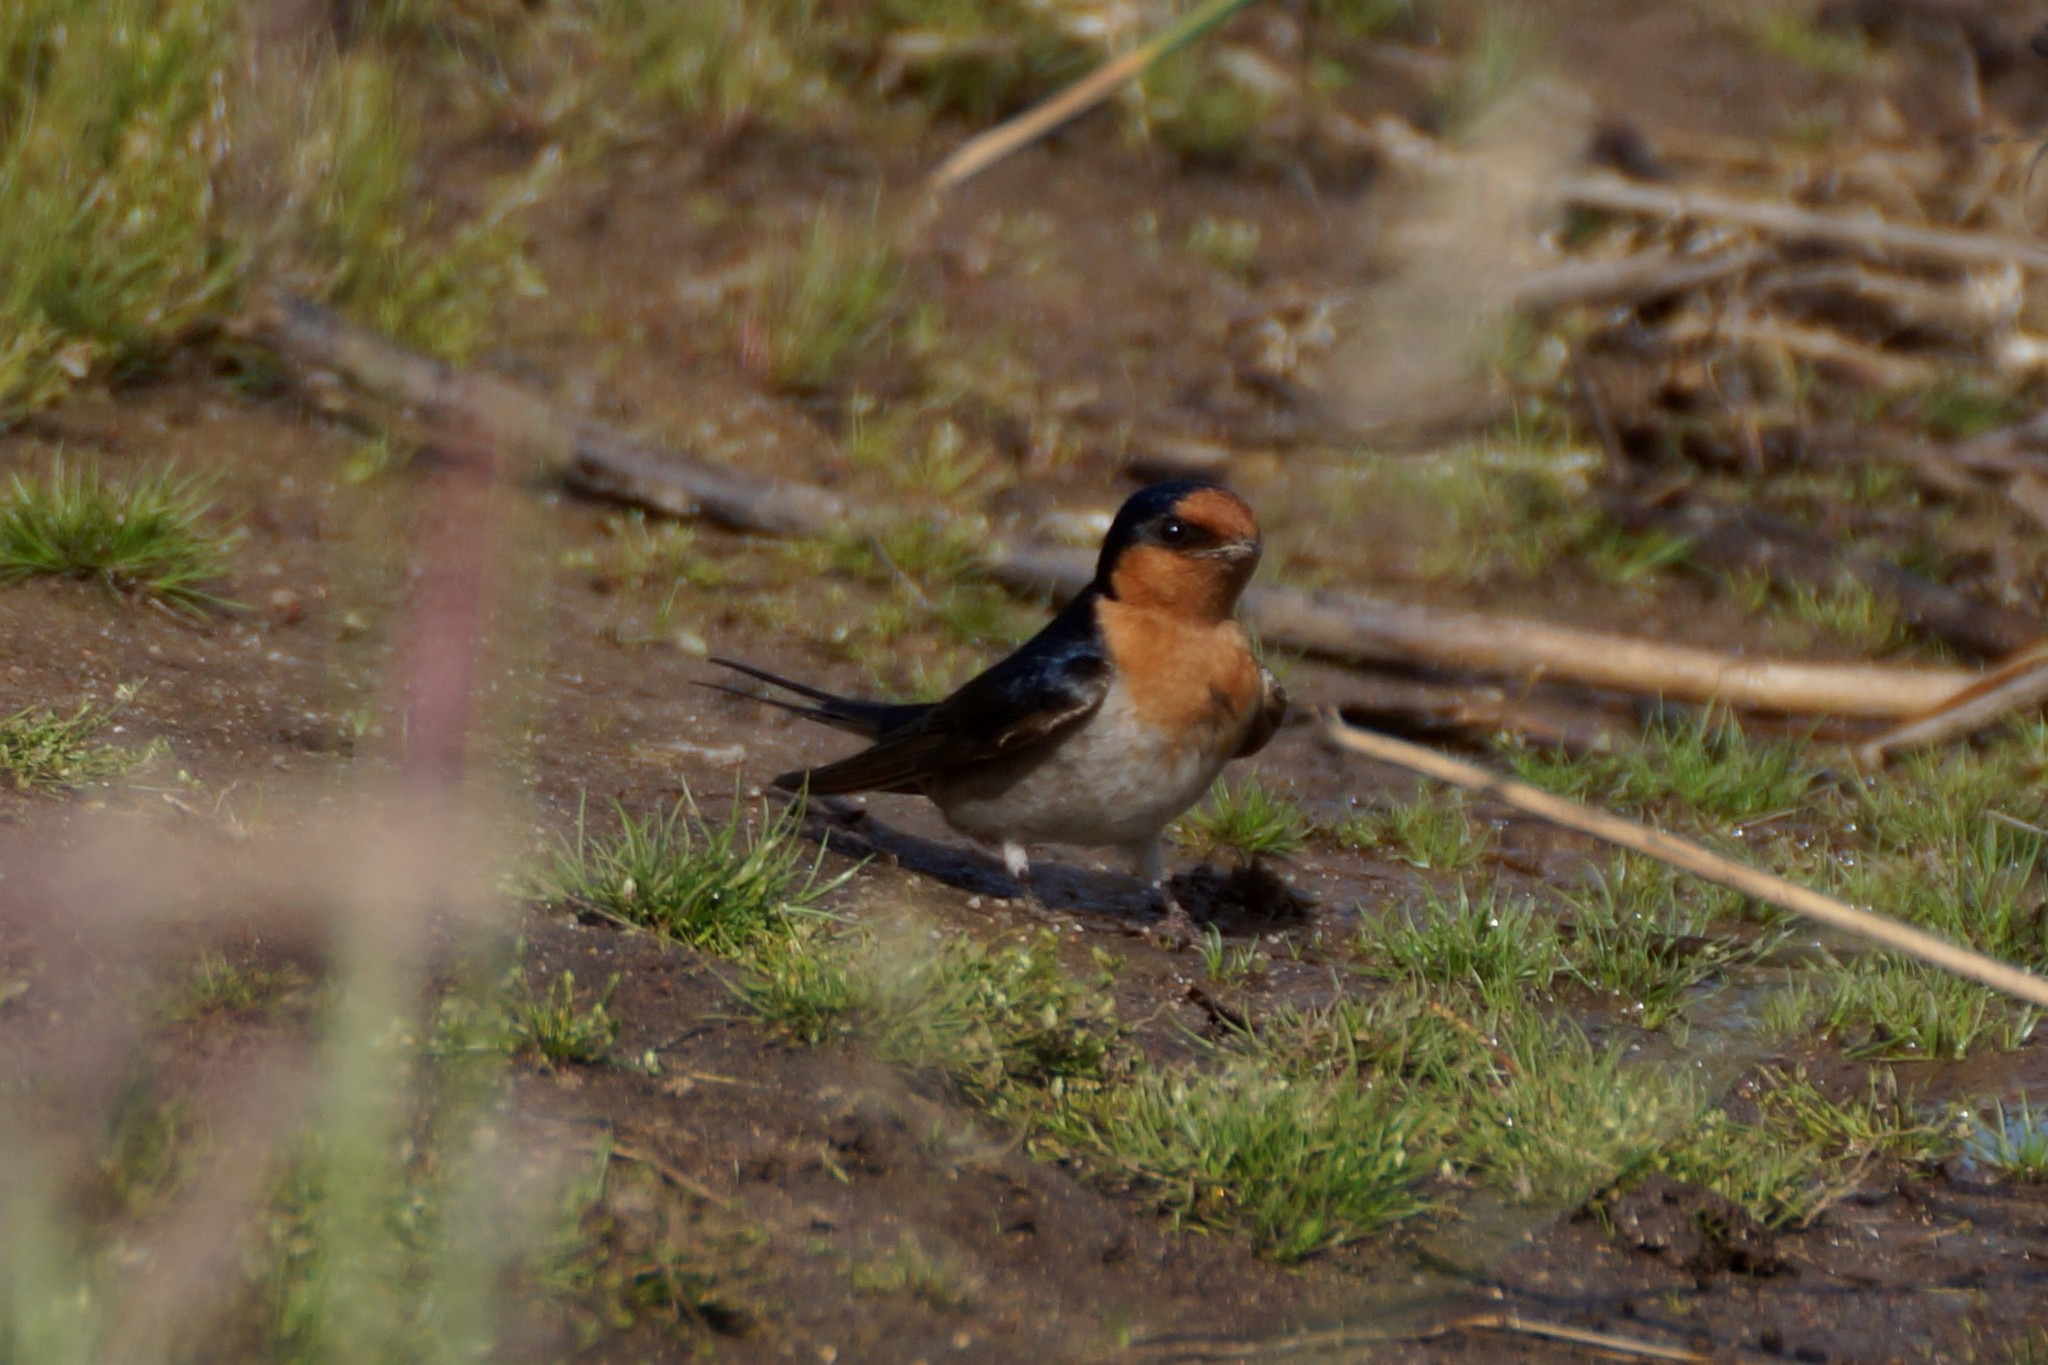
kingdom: Animalia
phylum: Chordata
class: Aves
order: Passeriformes
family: Hirundinidae
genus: Hirundo
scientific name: Hirundo neoxena
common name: Welcome swallow
